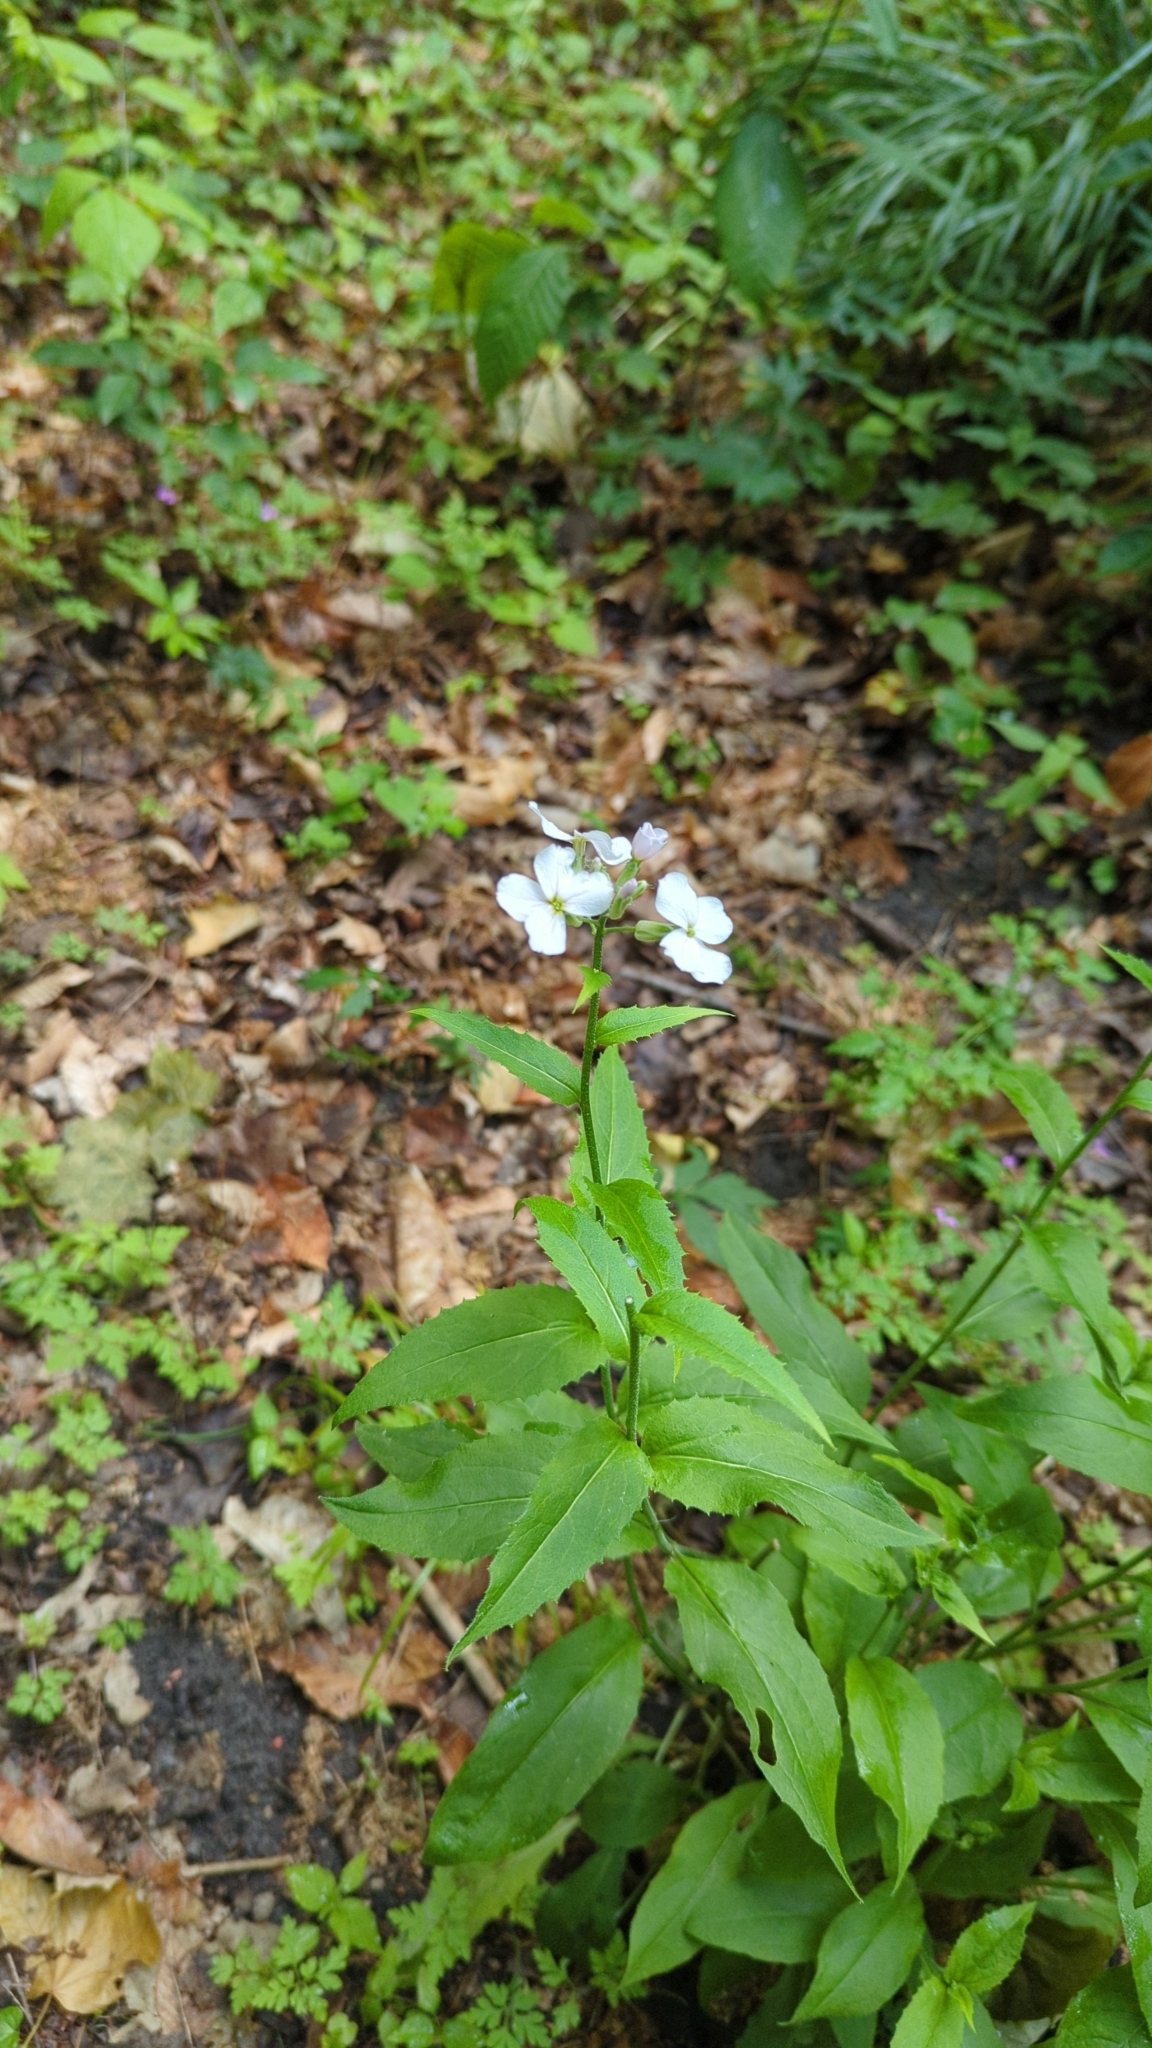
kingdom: Plantae
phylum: Tracheophyta
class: Magnoliopsida
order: Brassicales
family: Brassicaceae
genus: Hesperis
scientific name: Hesperis matronalis
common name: Dame's-violet
